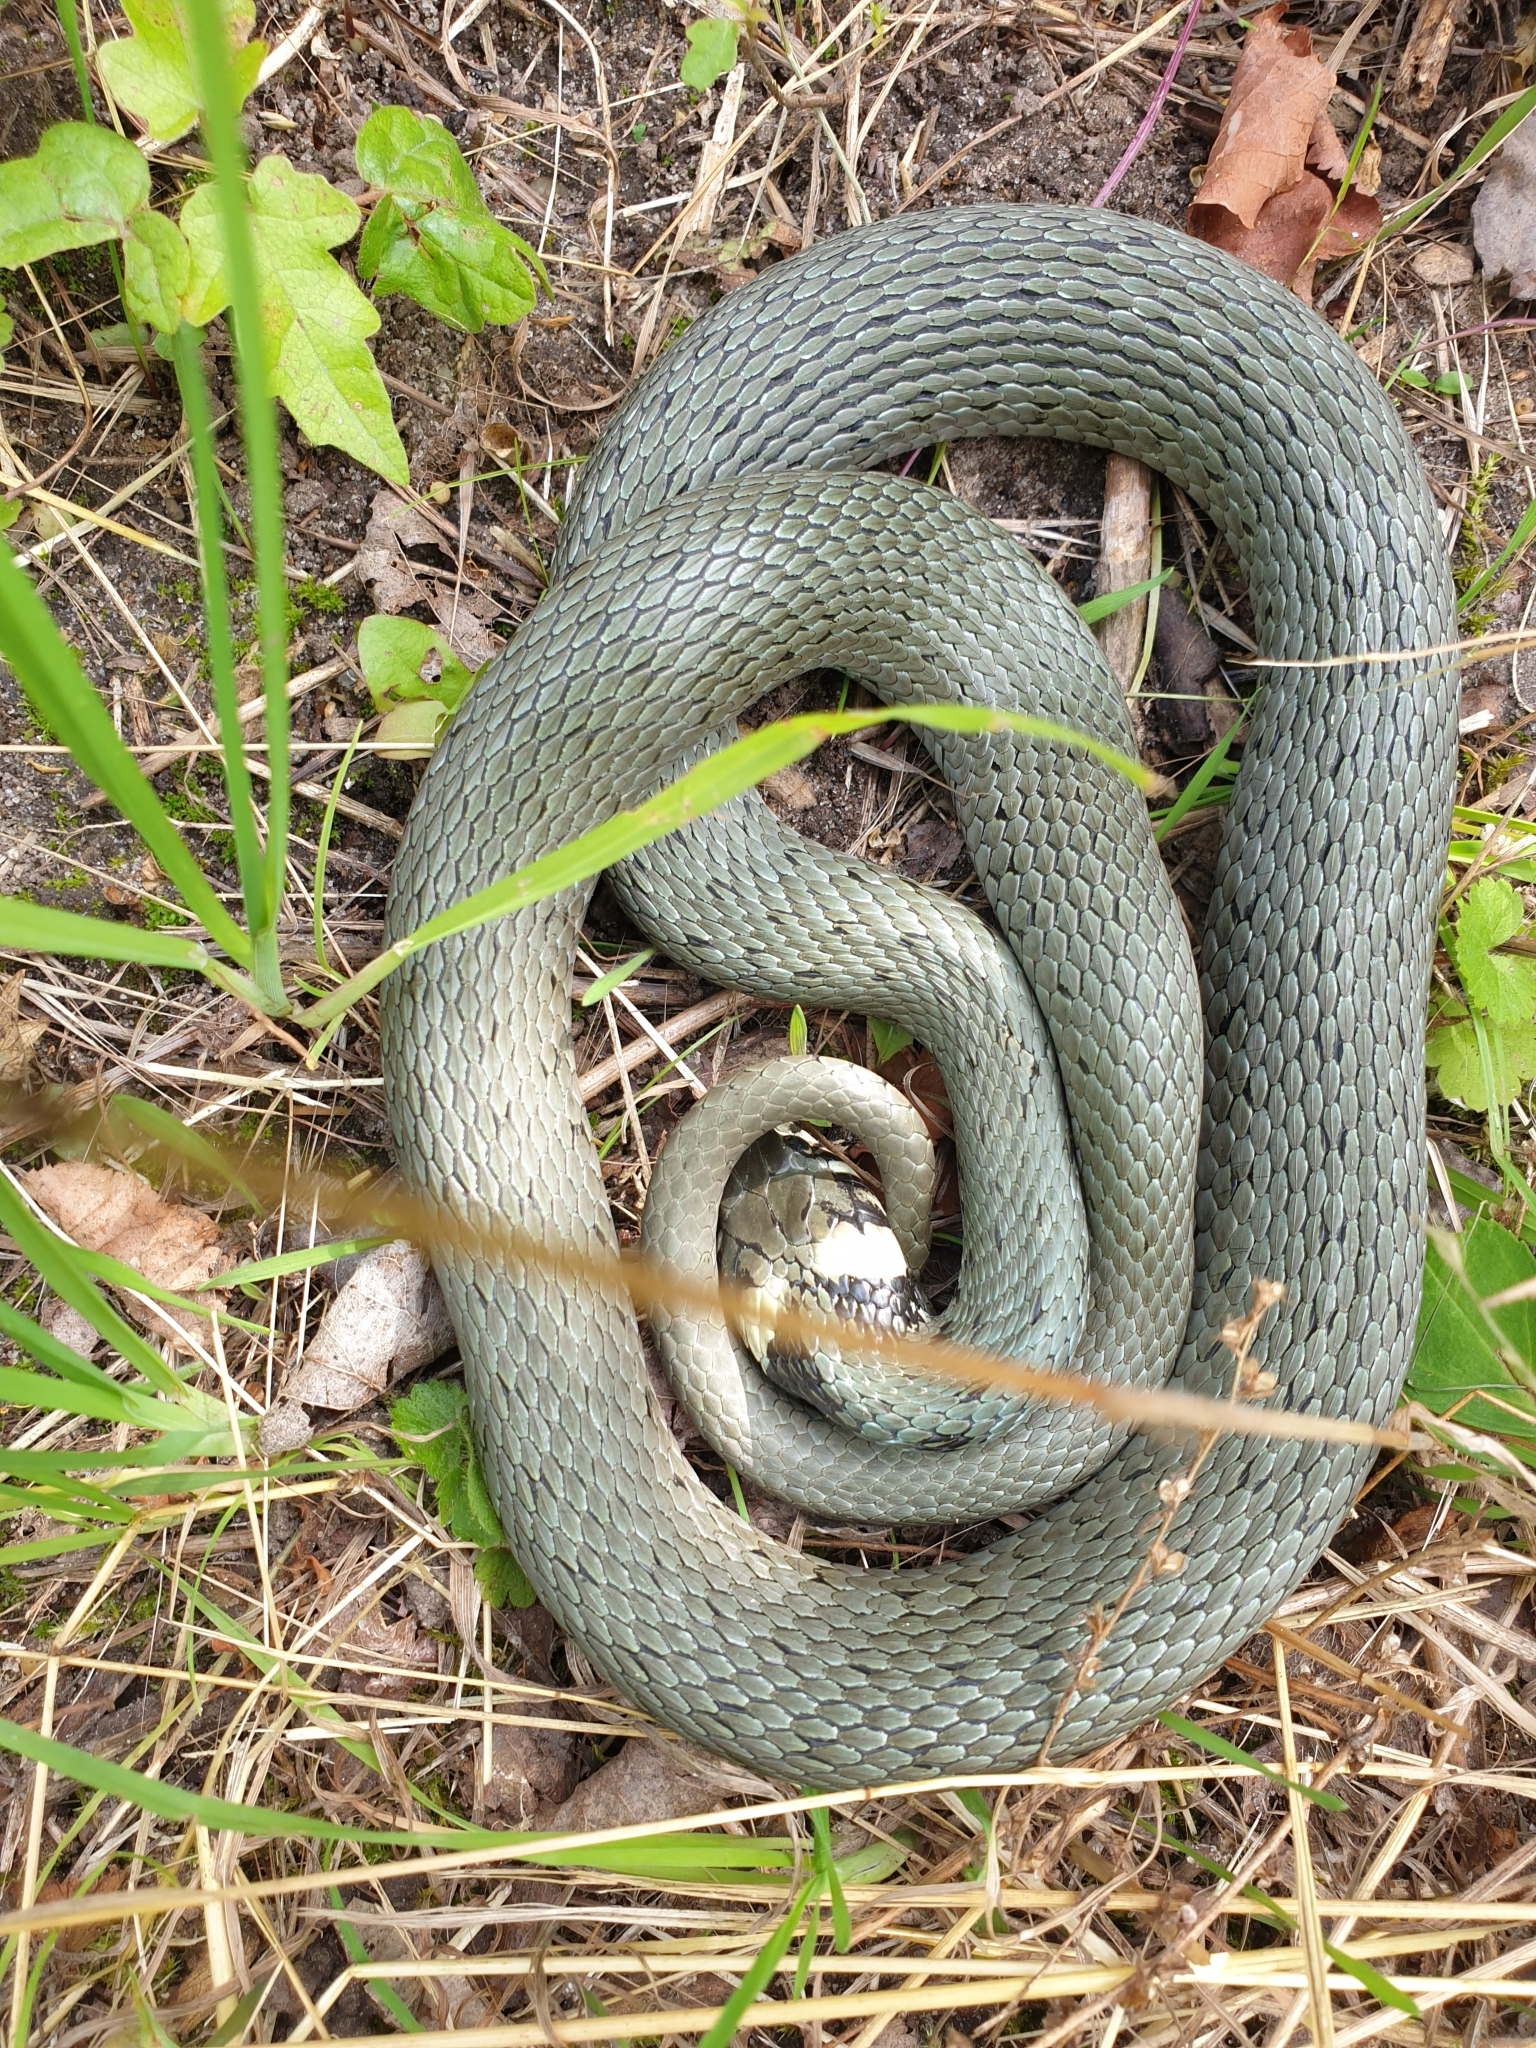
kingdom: Animalia
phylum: Chordata
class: Squamata
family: Colubridae
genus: Natrix
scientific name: Natrix natrix
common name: Grass snake
